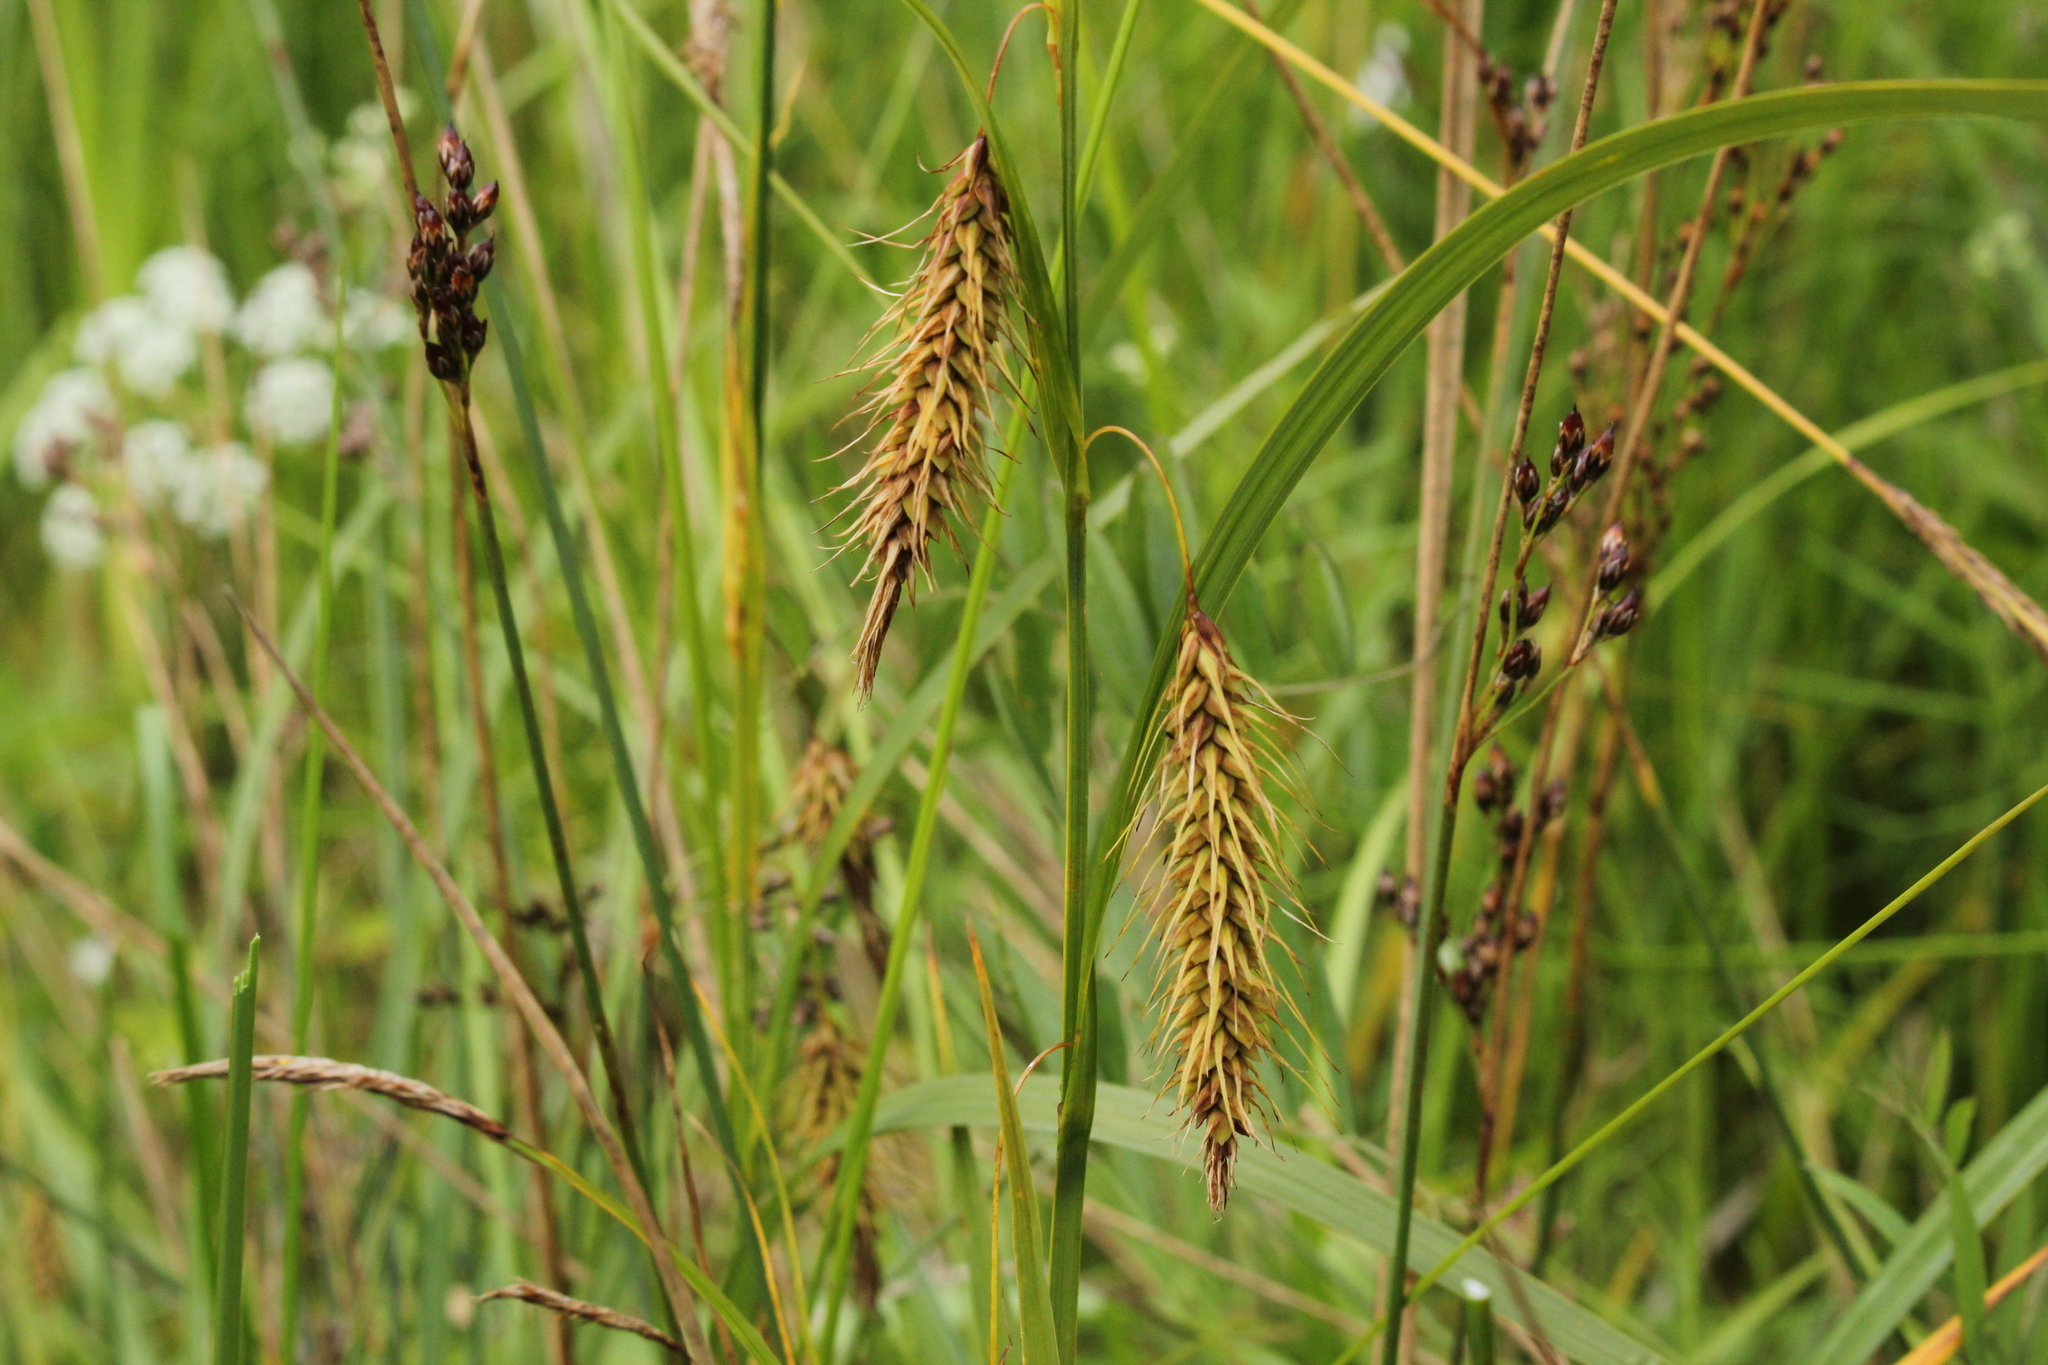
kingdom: Plantae
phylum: Tracheophyta
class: Liliopsida
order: Poales
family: Cyperaceae
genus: Carex
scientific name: Carex paleacea
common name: Chaffy sedge
